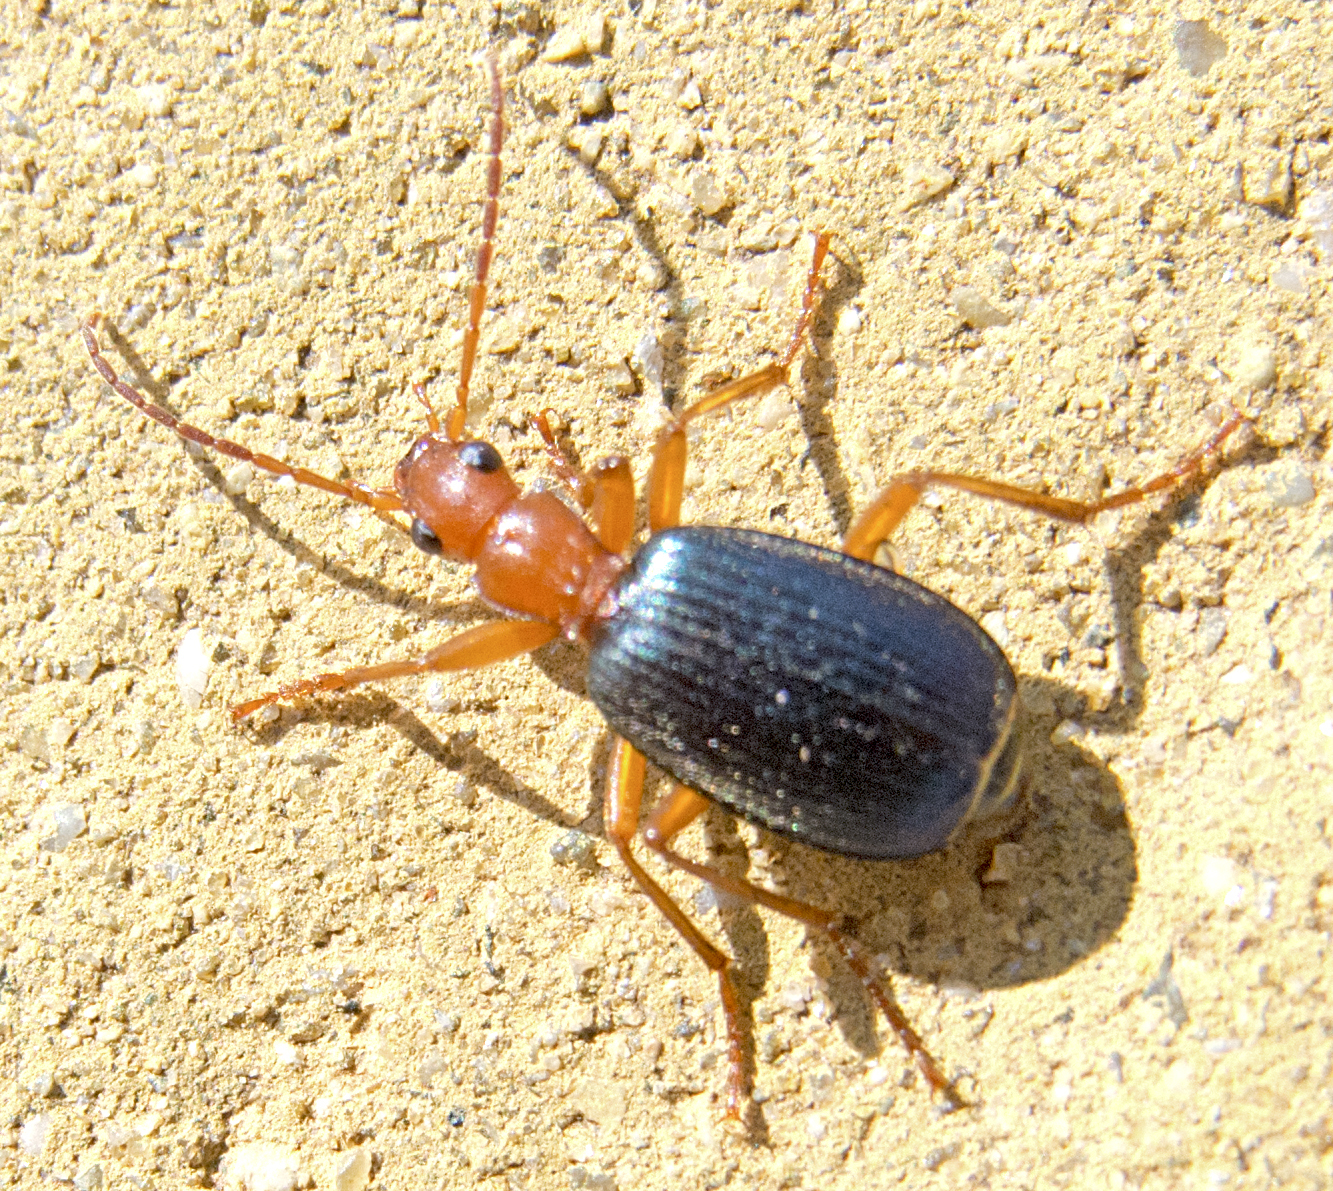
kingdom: Animalia
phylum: Arthropoda
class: Insecta
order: Coleoptera
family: Carabidae
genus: Brachinus
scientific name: Brachinus ejaculans
